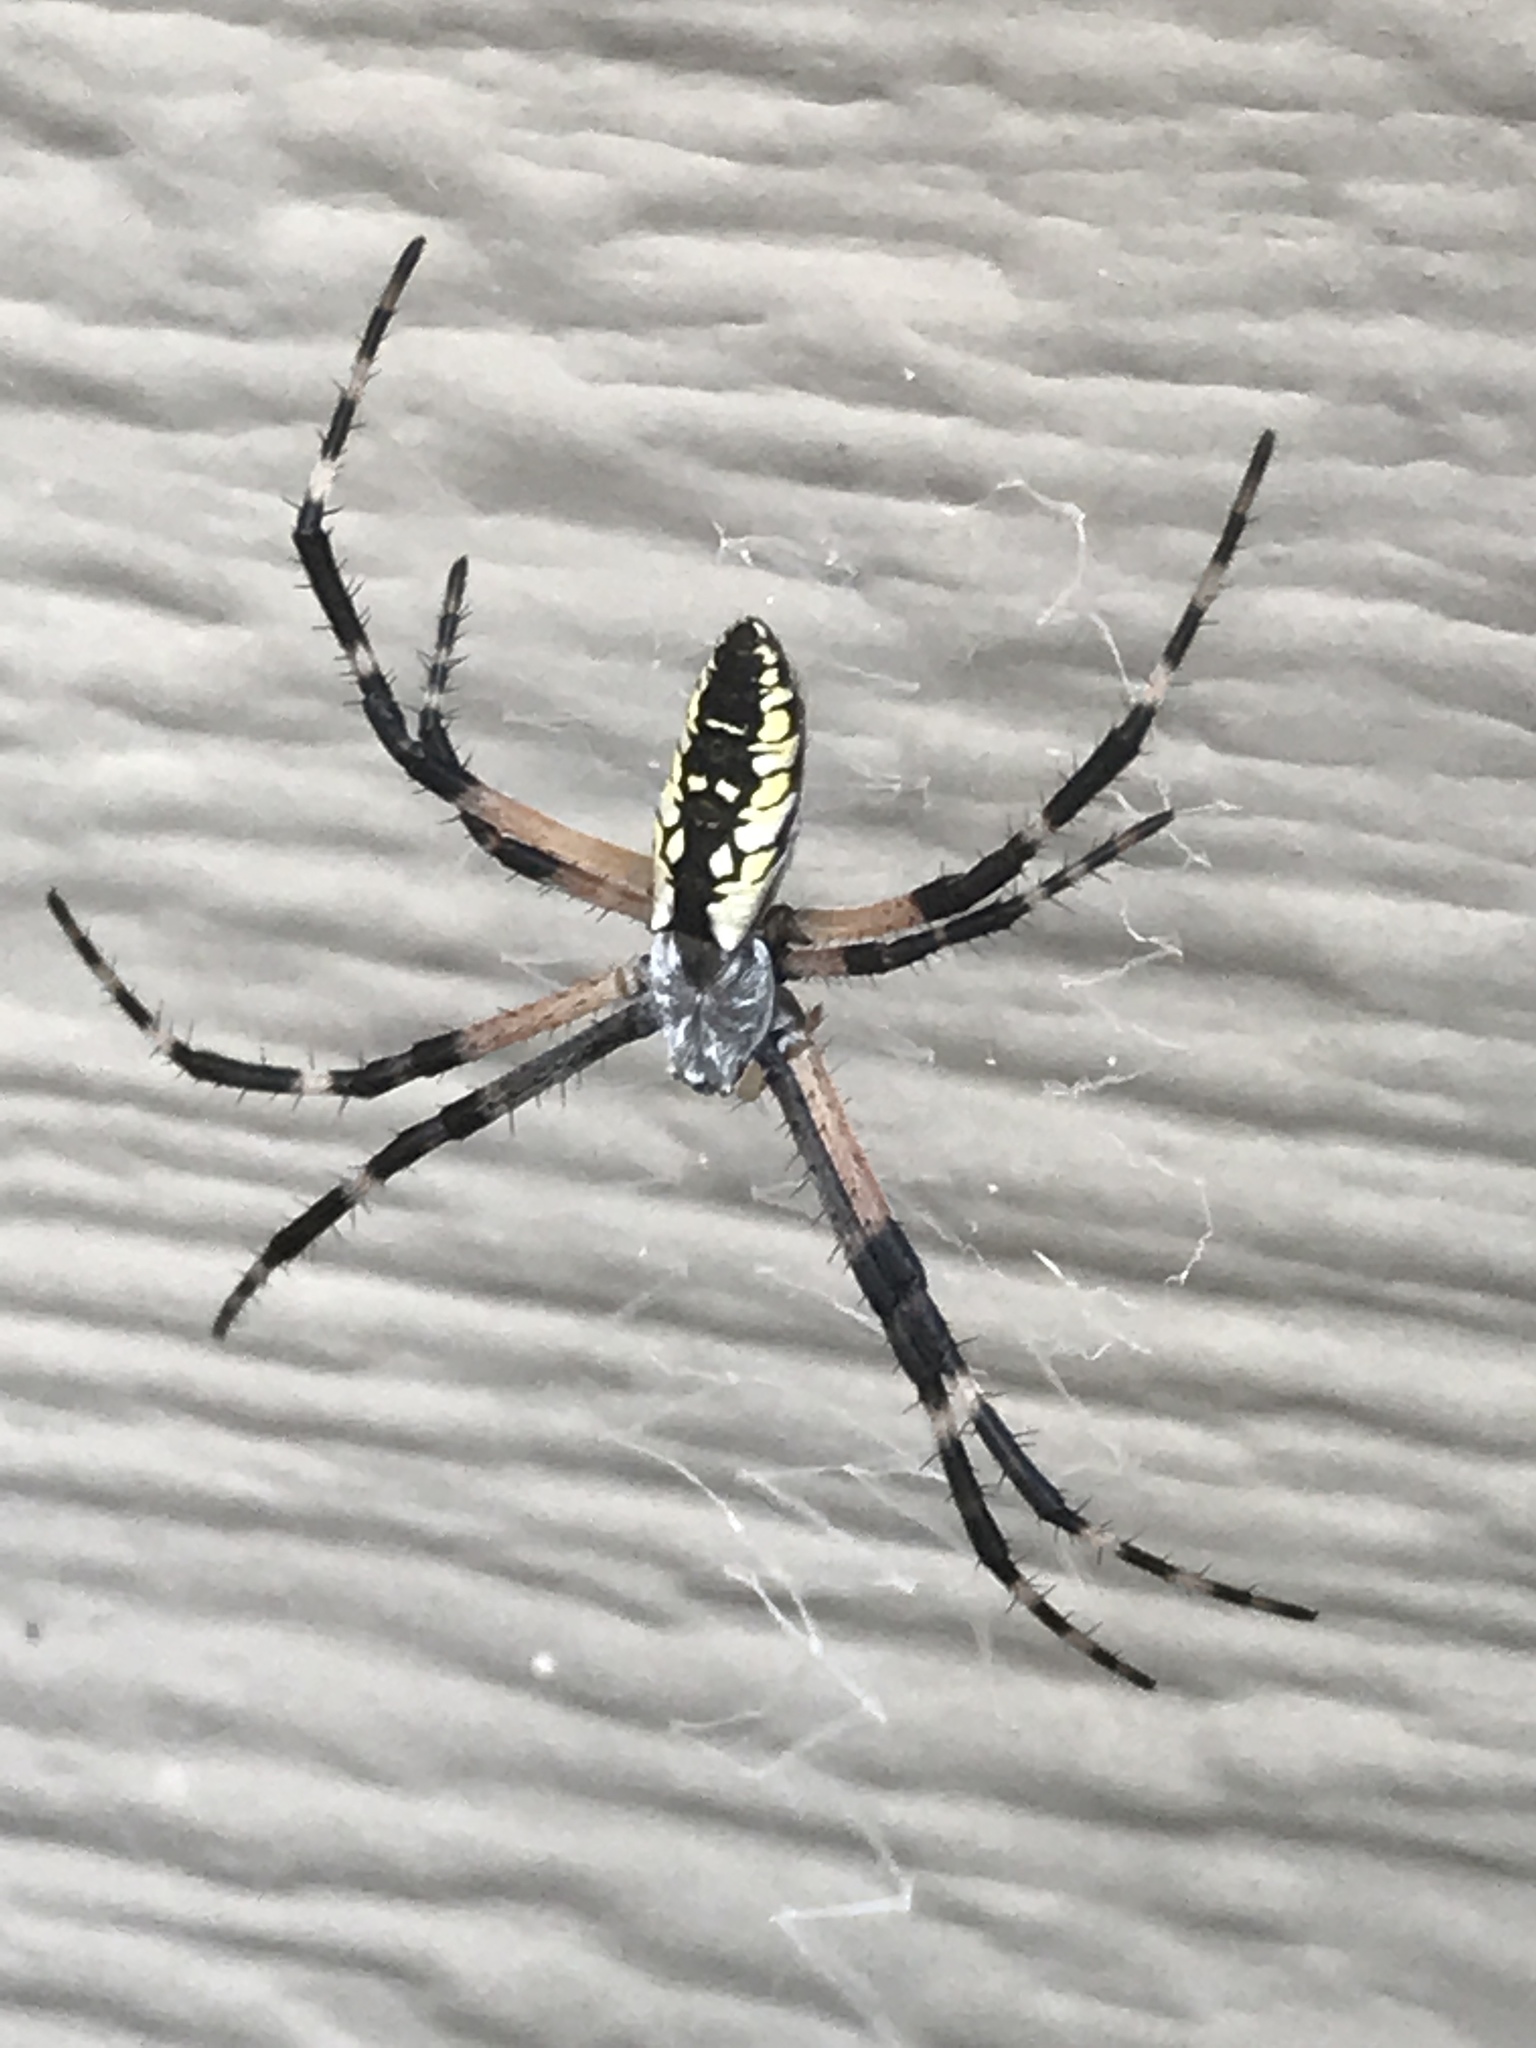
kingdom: Animalia
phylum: Arthropoda
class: Arachnida
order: Araneae
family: Araneidae
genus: Argiope
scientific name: Argiope aurantia
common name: Orb weavers
